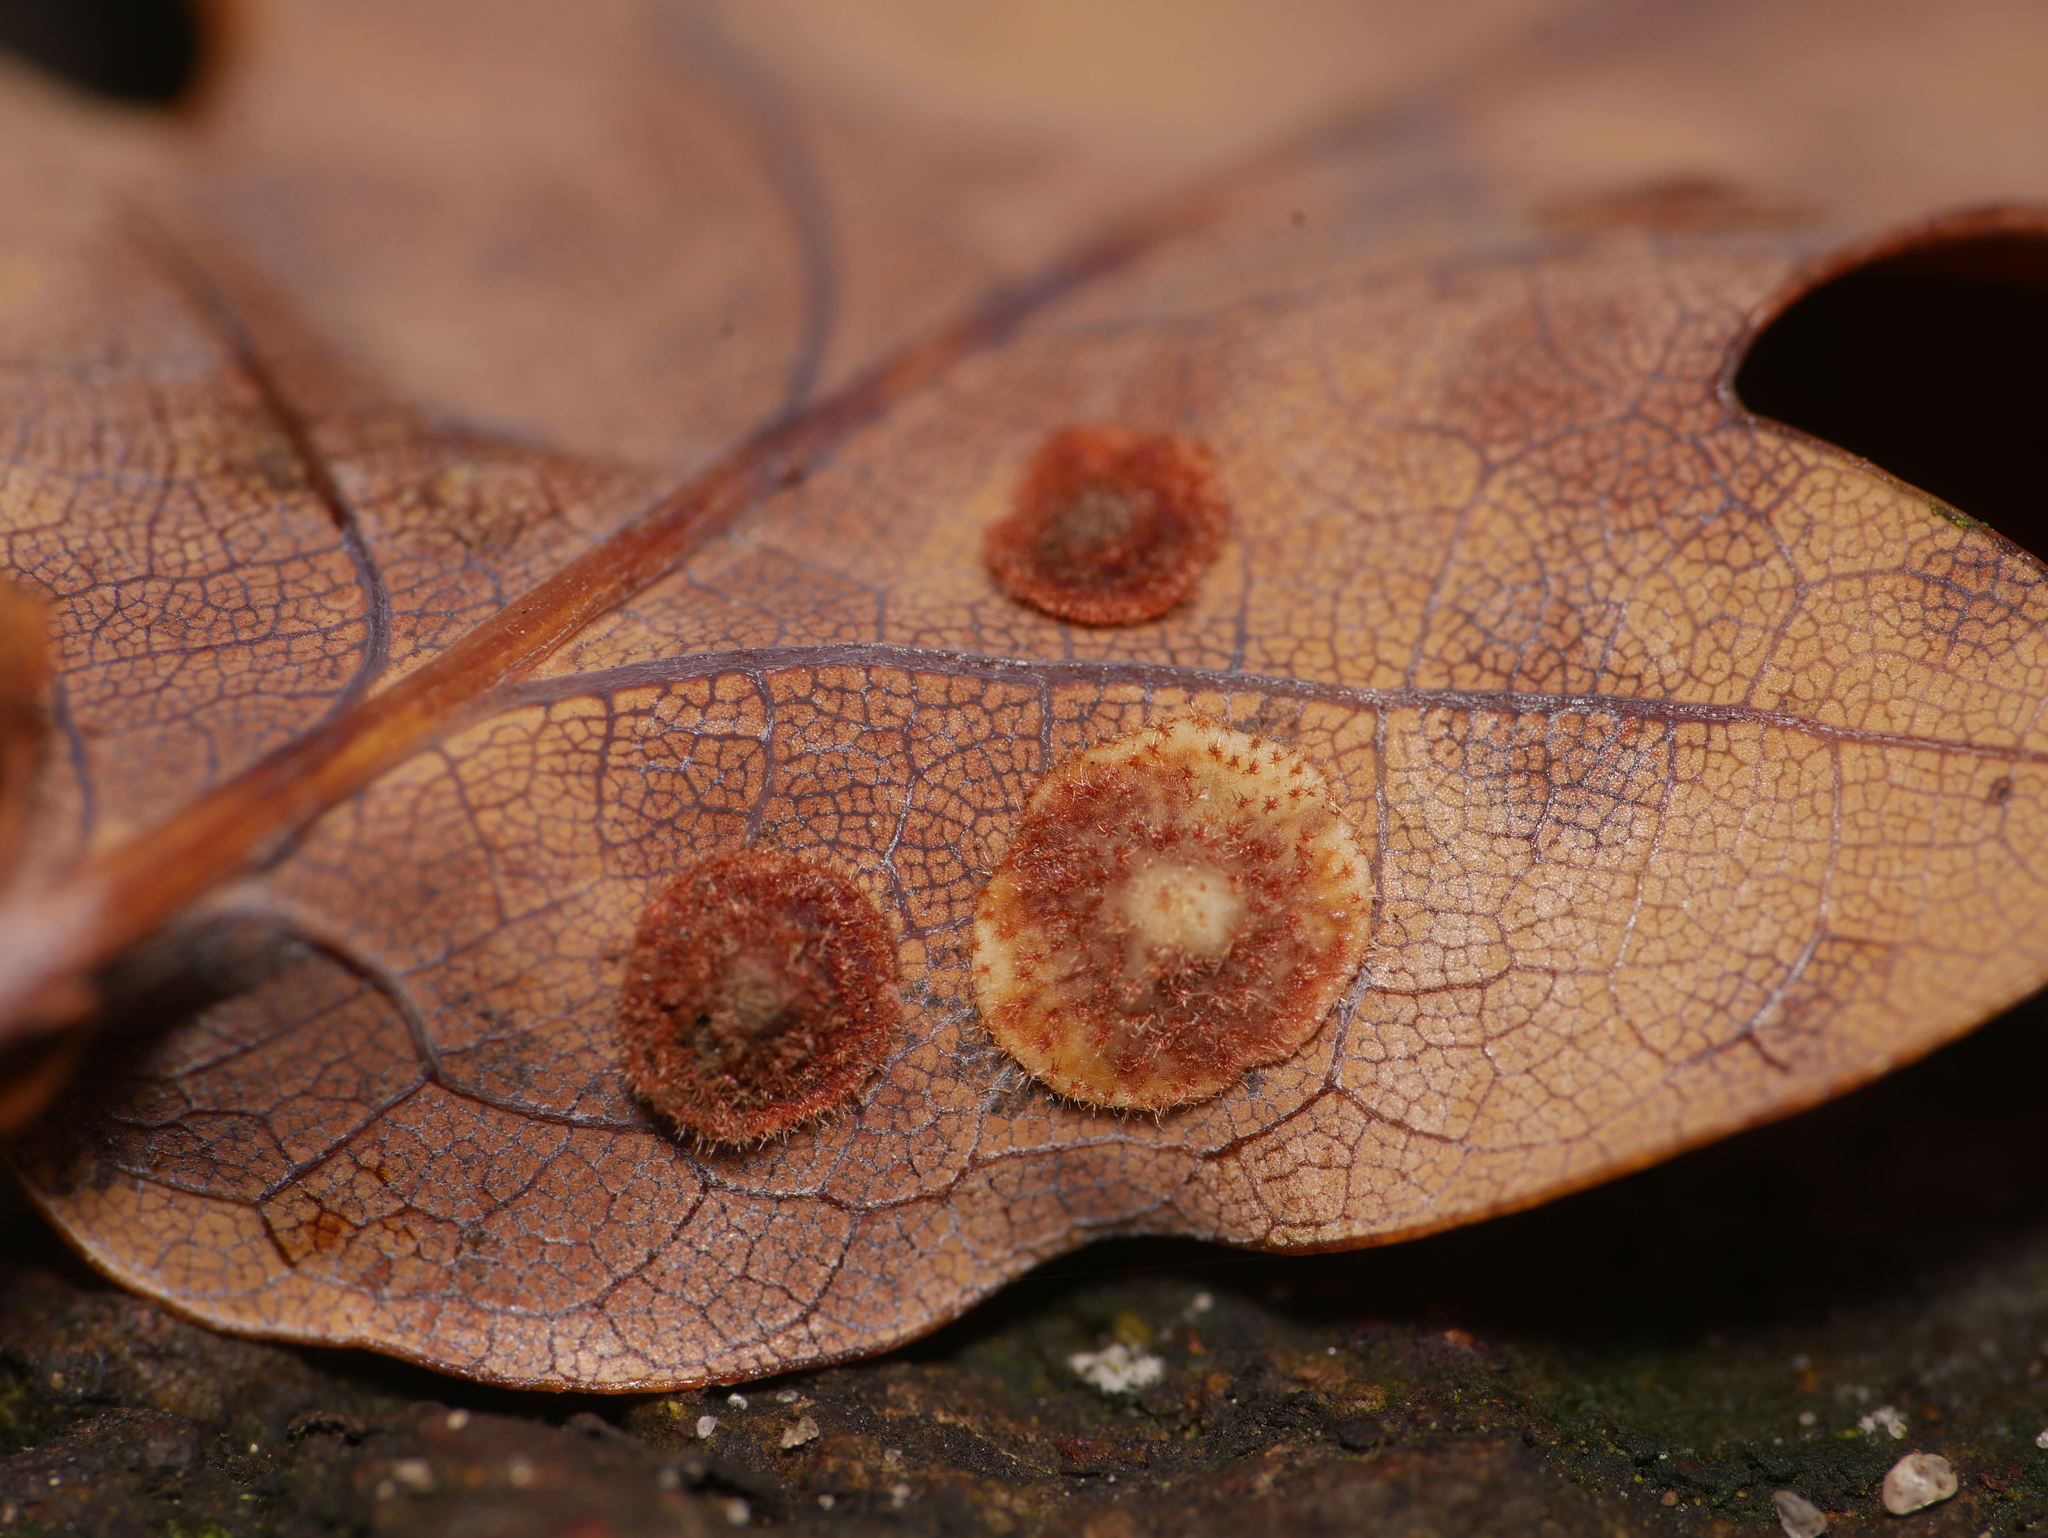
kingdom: Animalia
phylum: Arthropoda
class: Insecta
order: Hymenoptera
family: Cynipidae
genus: Neuroterus
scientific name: Neuroterus quercusbaccarum
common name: Common spangle gall
